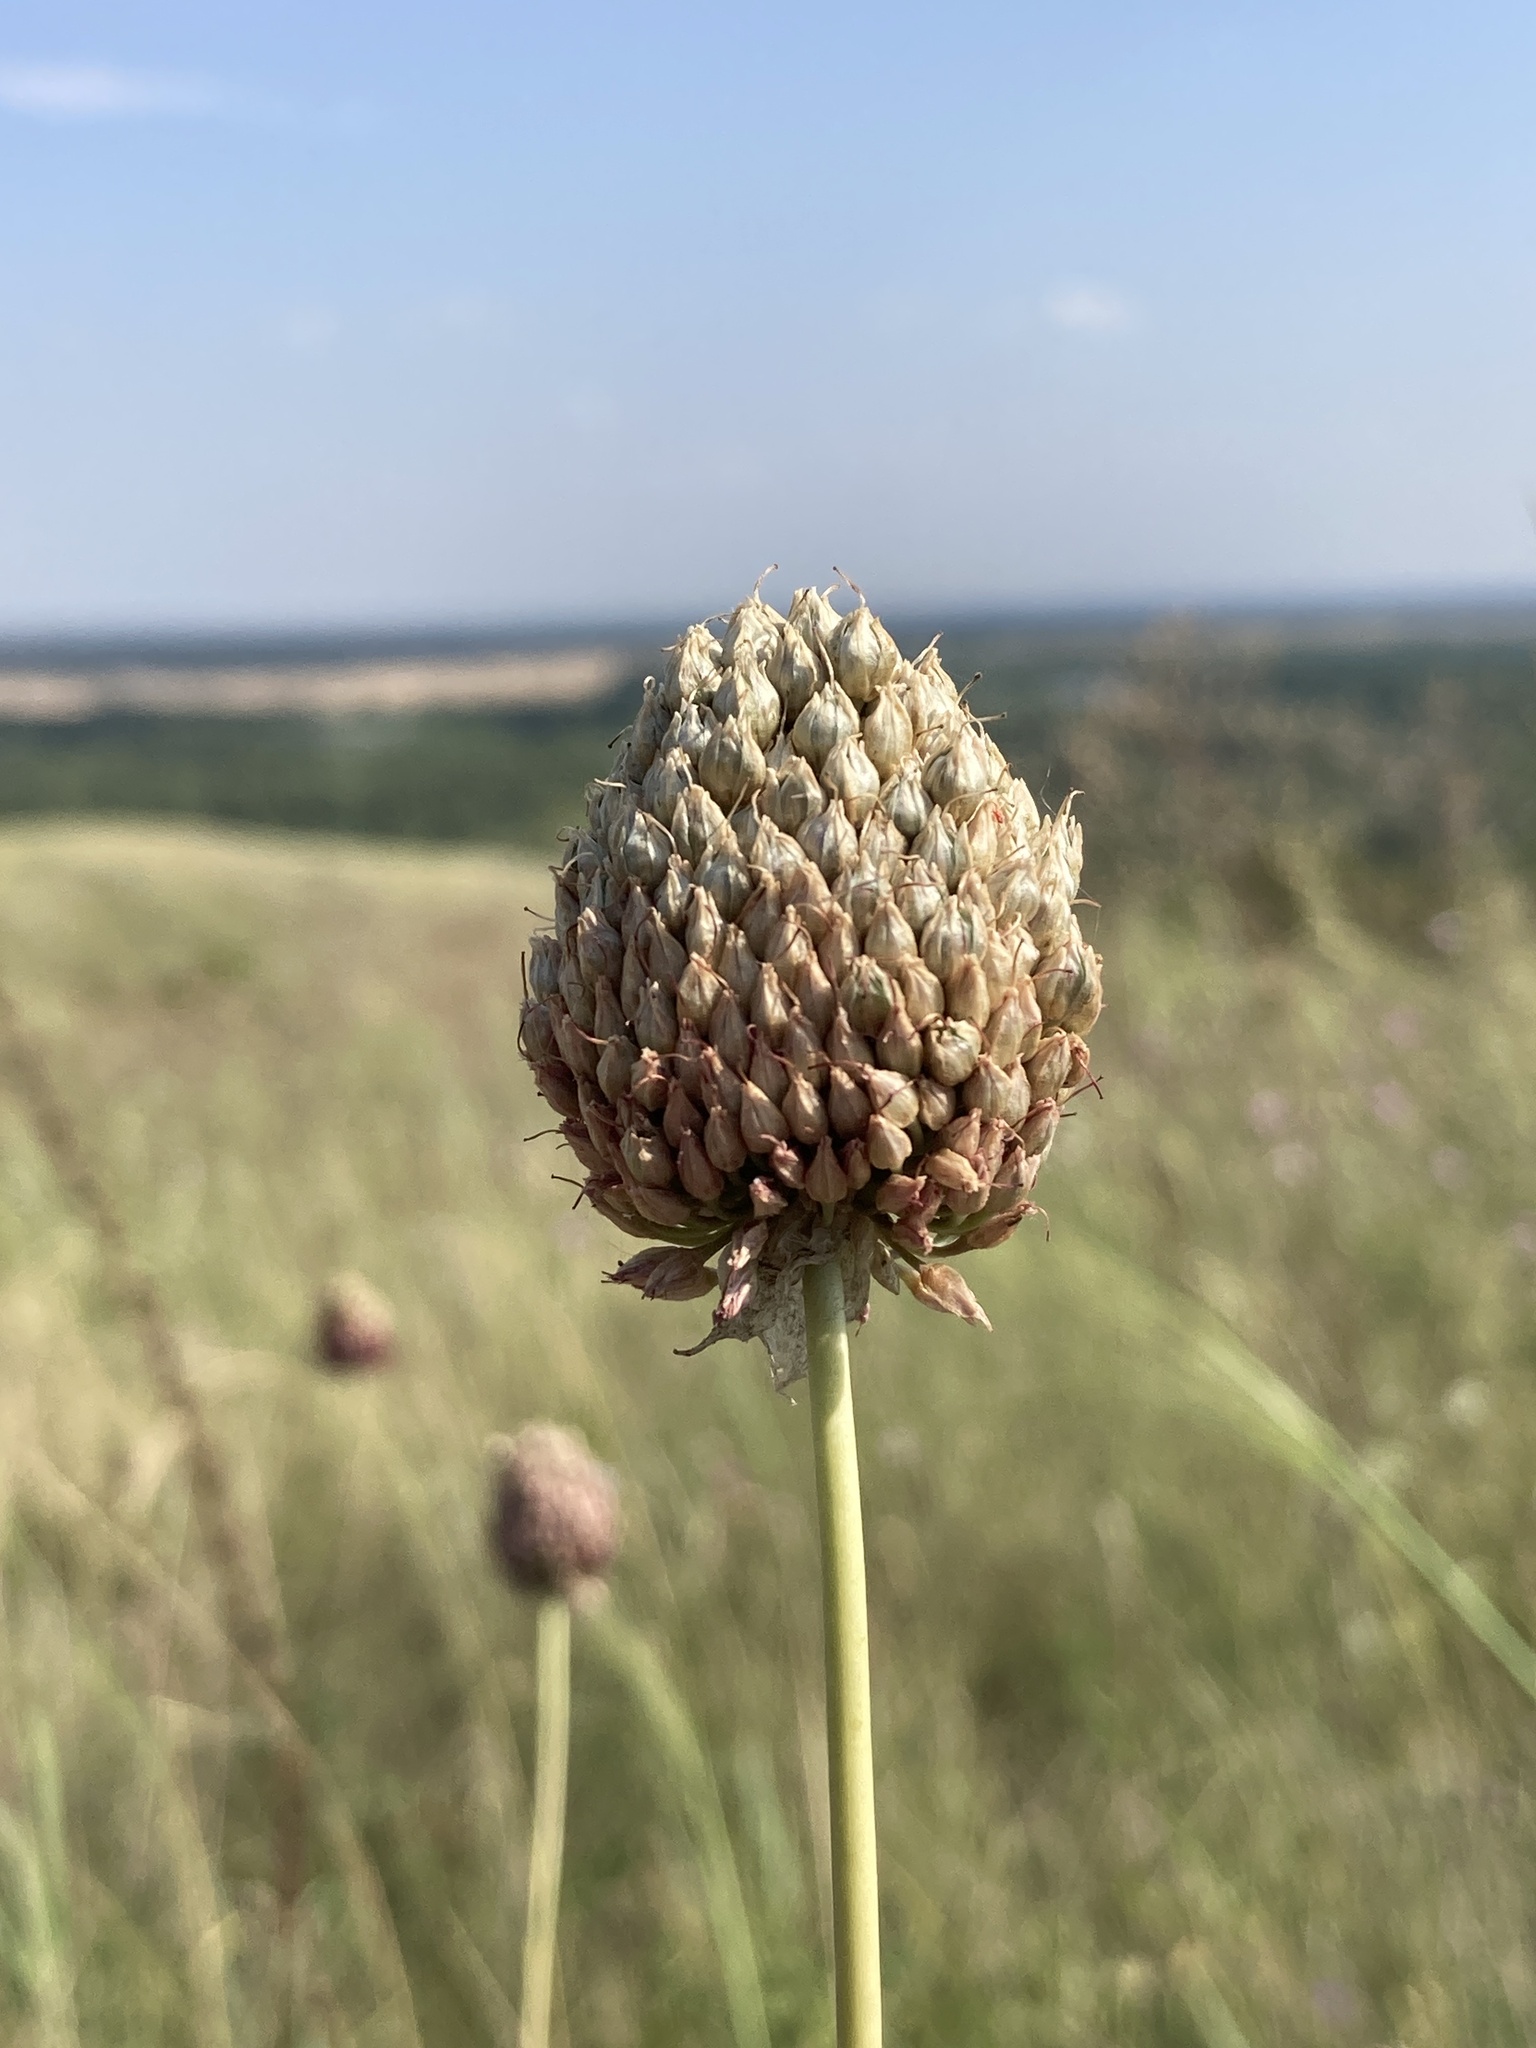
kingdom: Plantae
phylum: Tracheophyta
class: Liliopsida
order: Asparagales
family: Amaryllidaceae
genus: Allium
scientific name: Allium sphaerocephalon
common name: Round-headed leek
